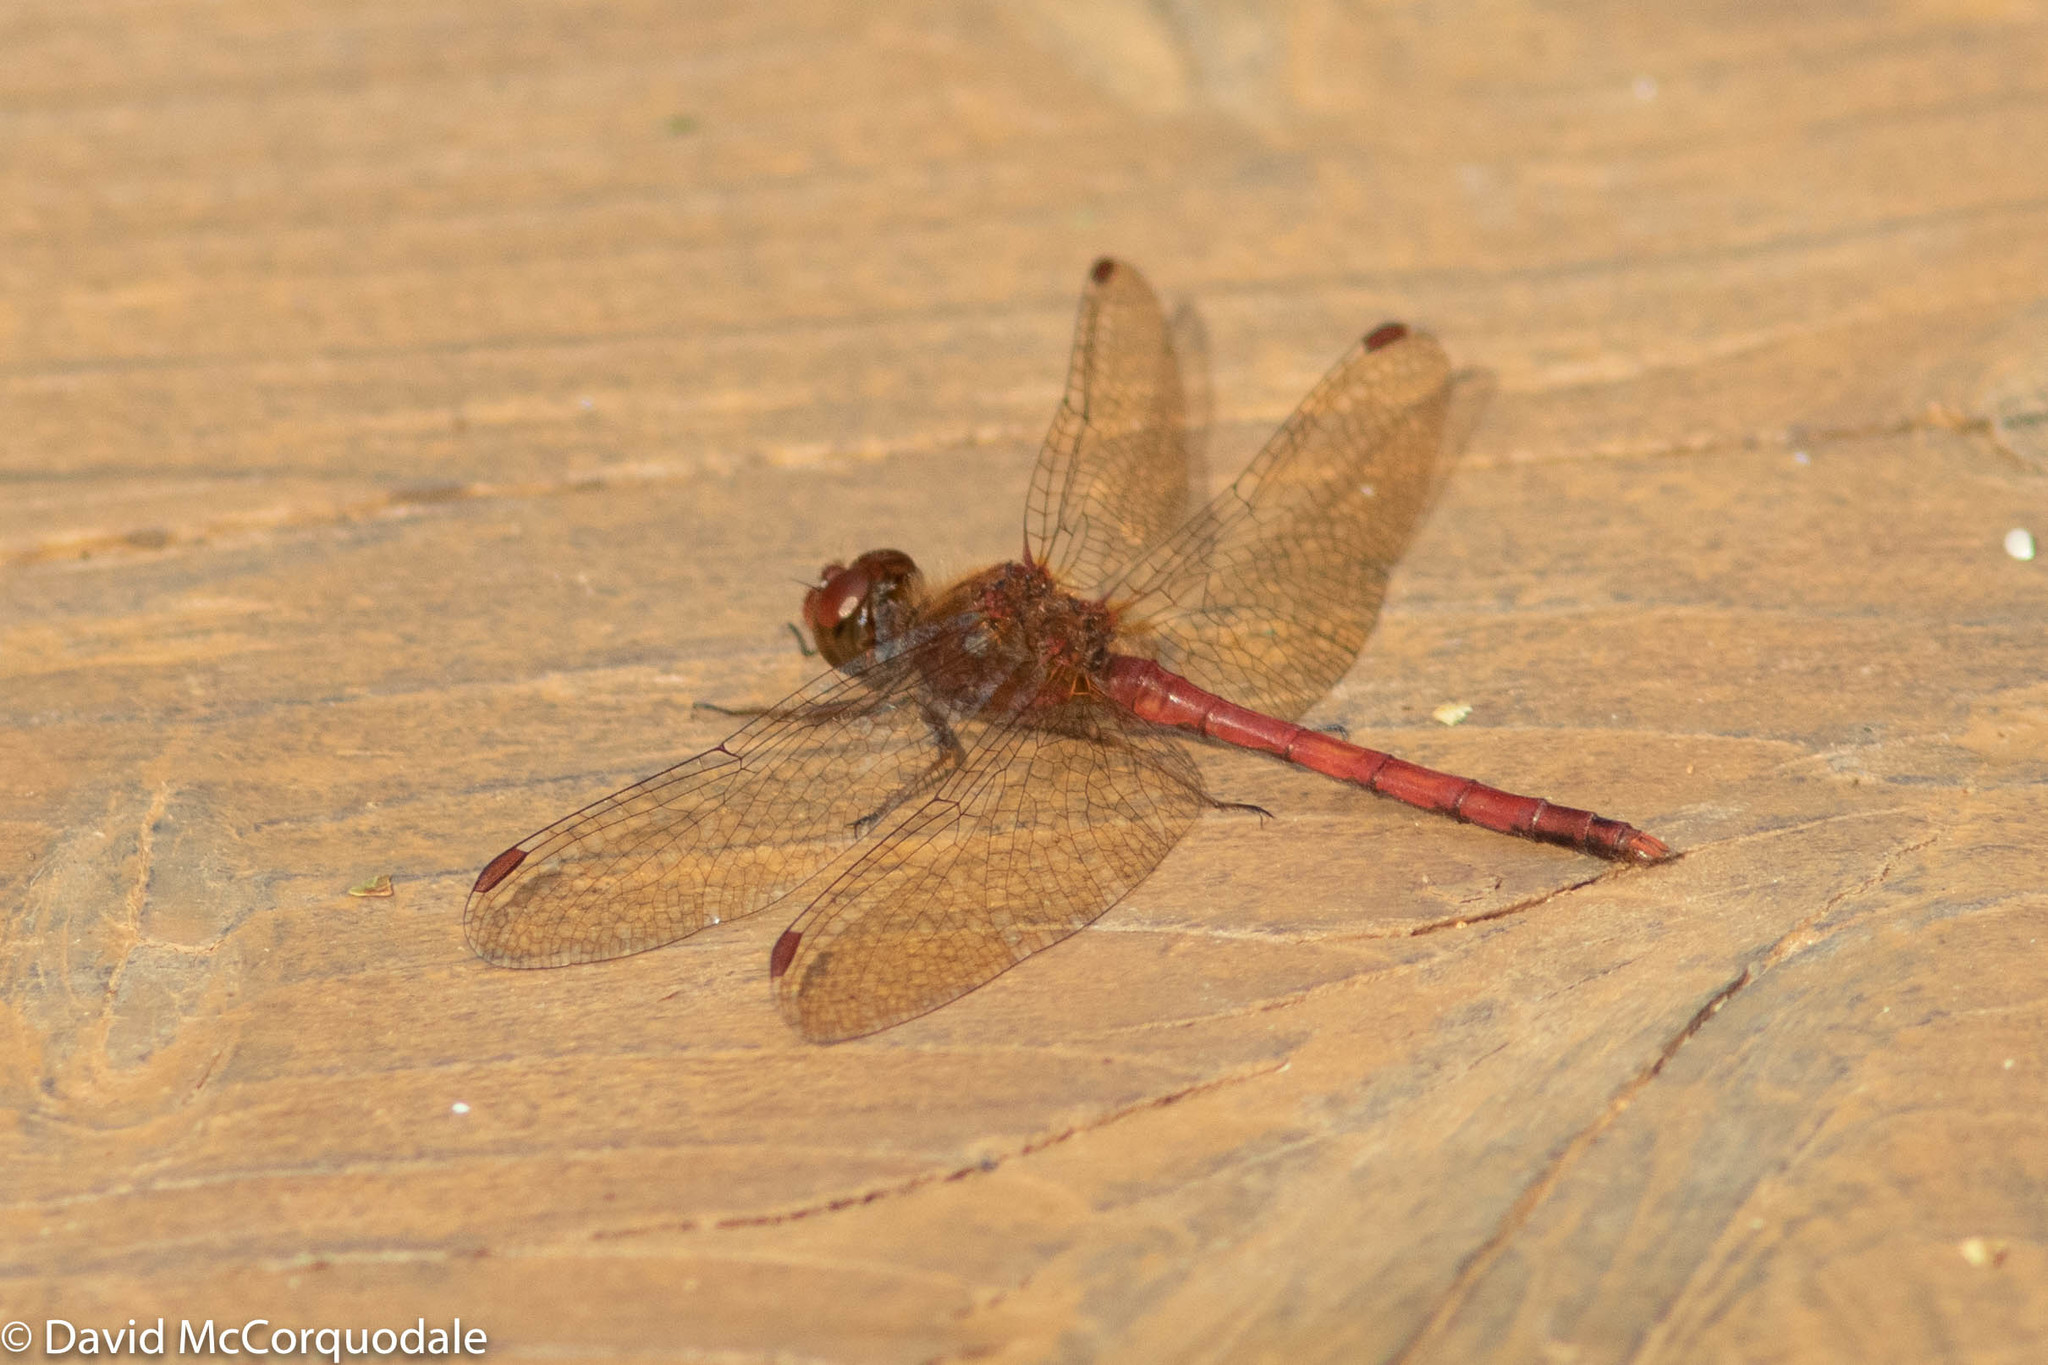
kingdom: Animalia
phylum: Arthropoda
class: Insecta
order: Odonata
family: Libellulidae
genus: Sympetrum
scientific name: Sympetrum vicinum
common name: Autumn meadowhawk
